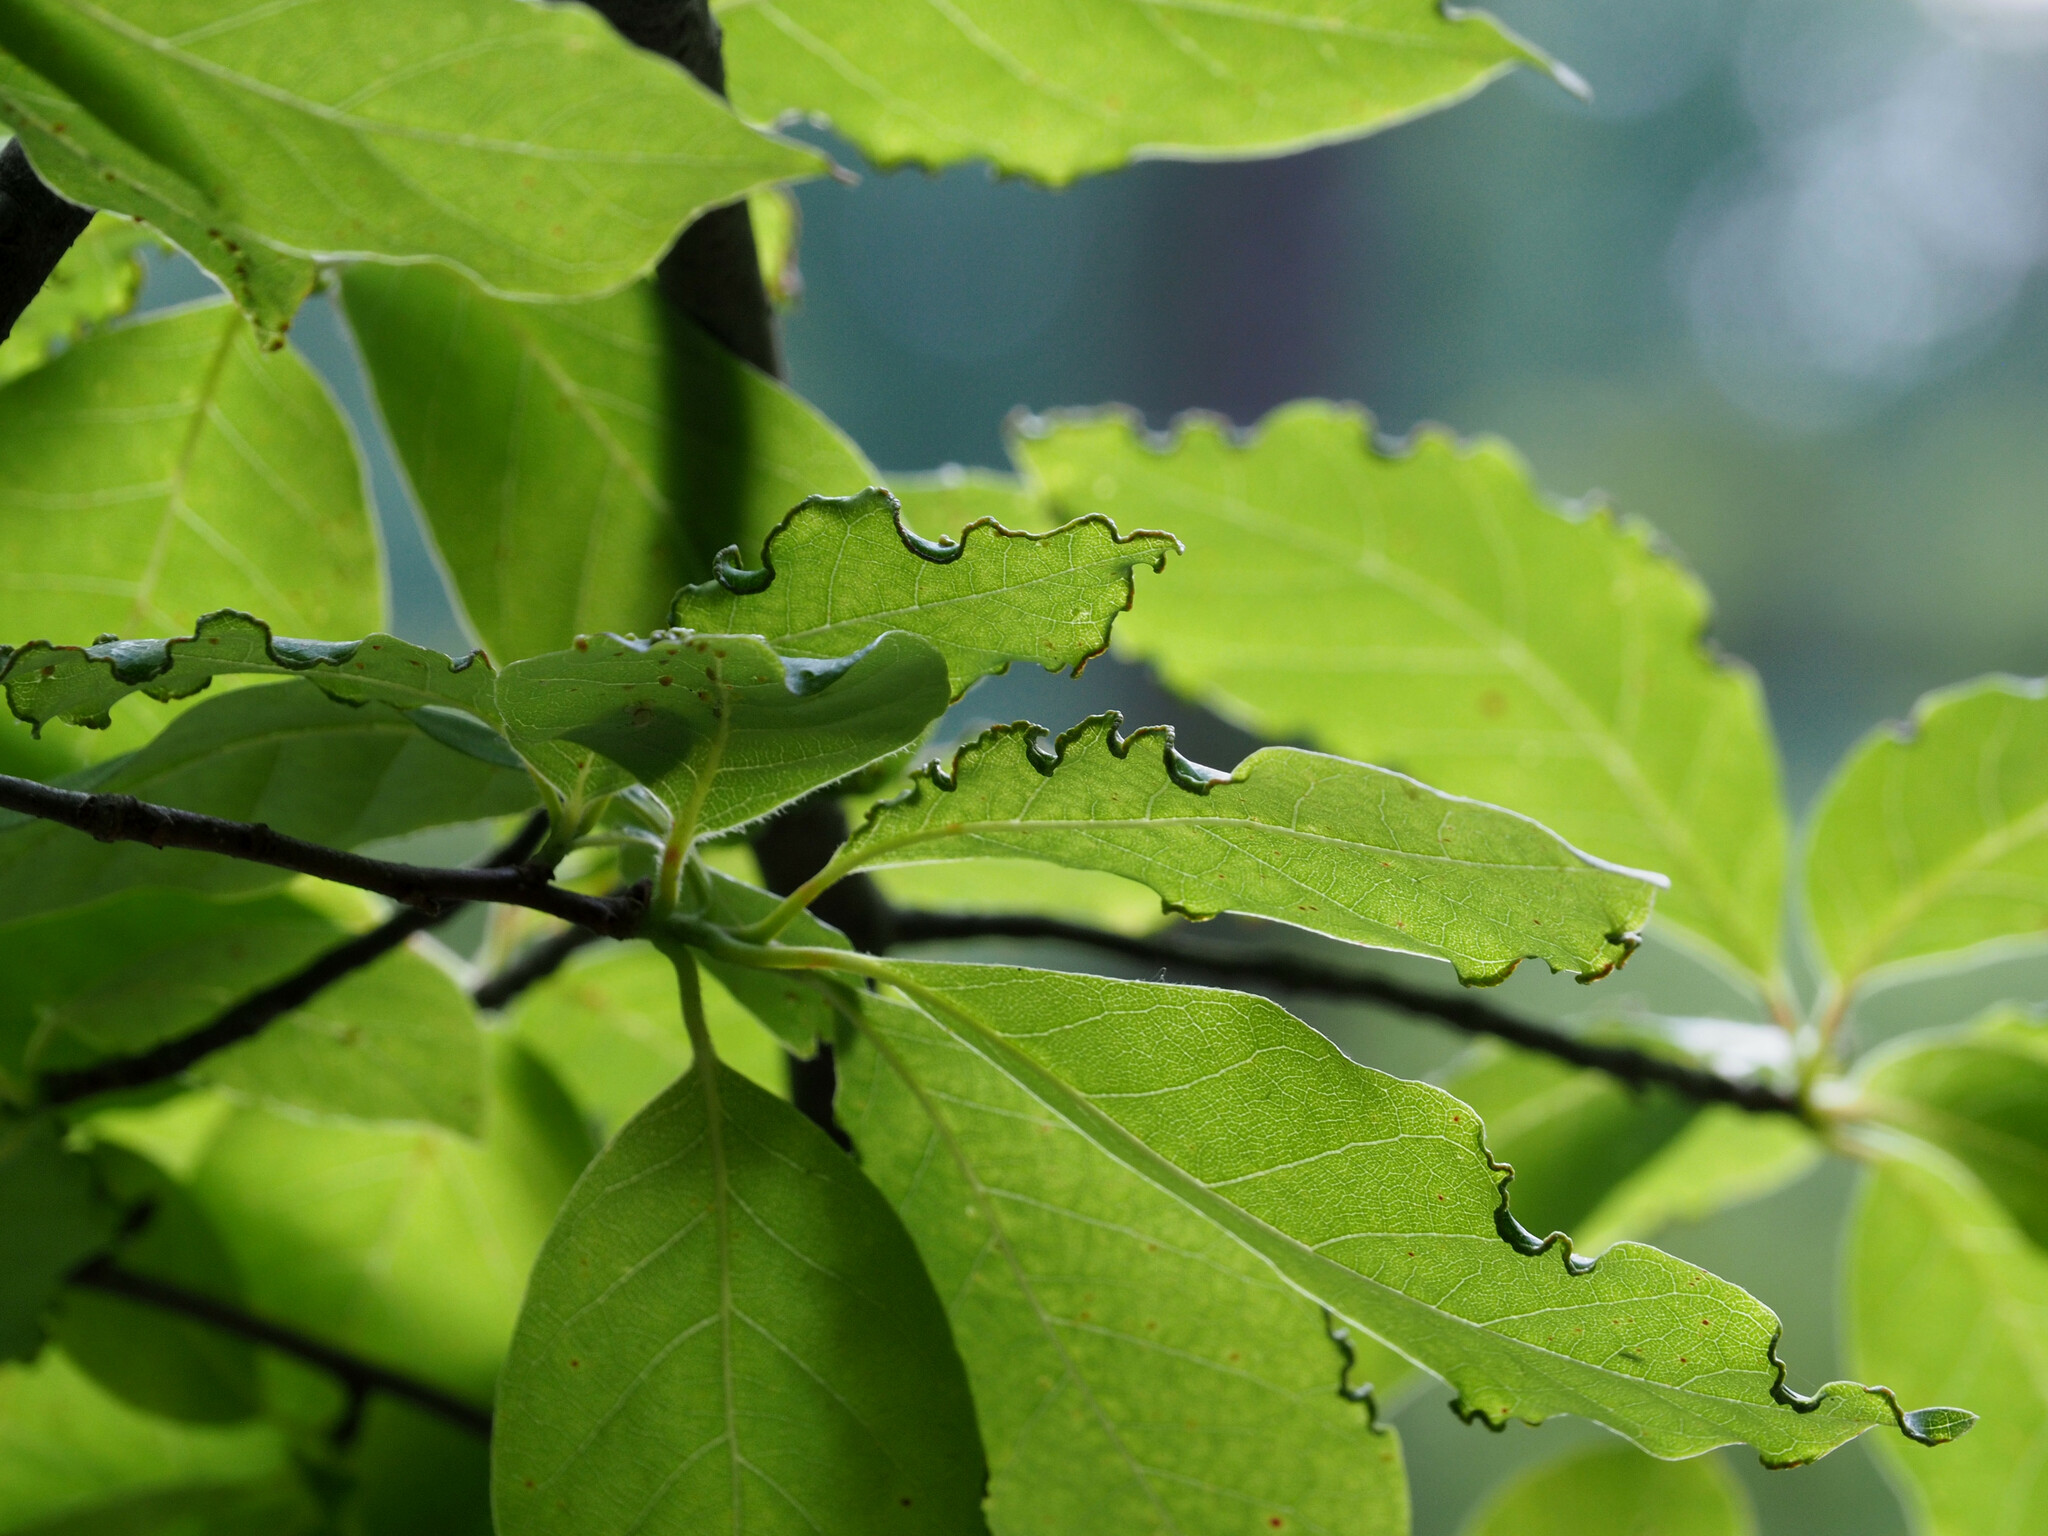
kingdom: Animalia
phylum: Arthropoda
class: Arachnida
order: Trombidiformes
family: Eriophyidae
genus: Aceria
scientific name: Aceria
